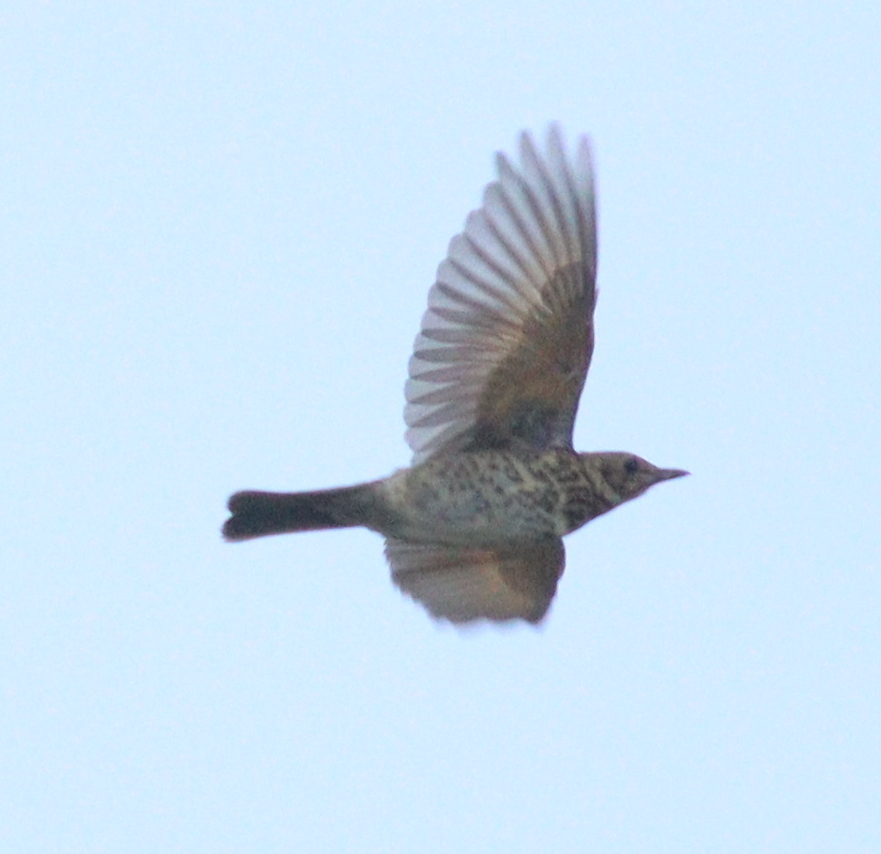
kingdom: Animalia
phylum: Chordata
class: Aves
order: Passeriformes
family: Turdidae
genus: Turdus
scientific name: Turdus viscivorus
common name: Mistle thrush
